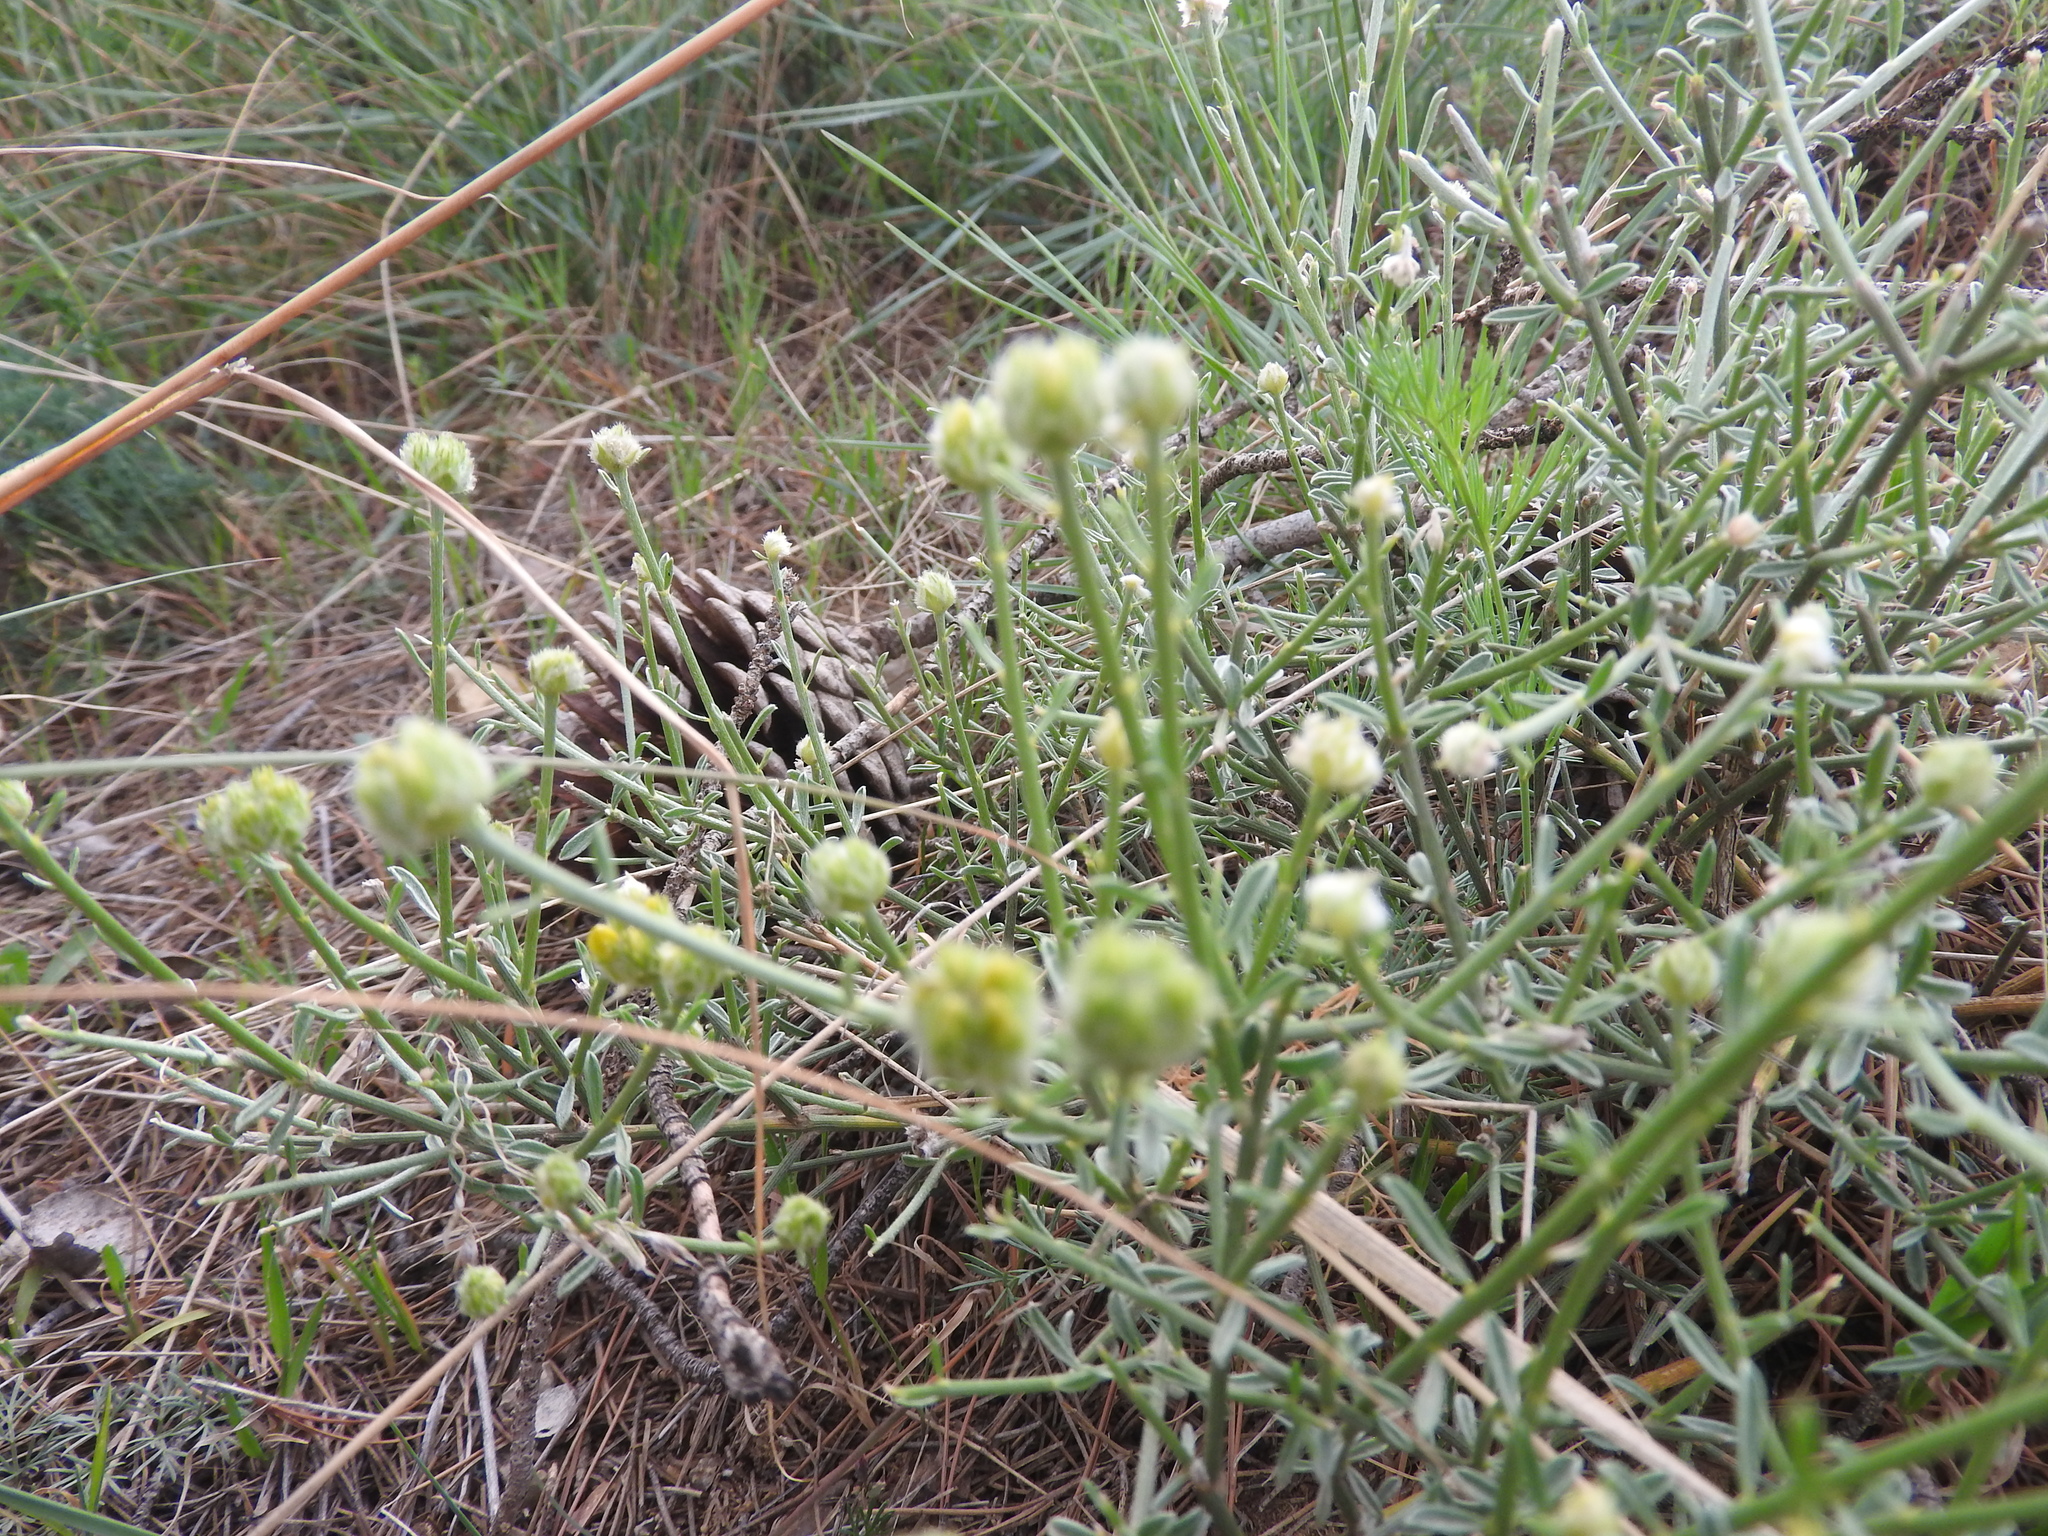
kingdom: Plantae
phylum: Tracheophyta
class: Magnoliopsida
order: Fabales
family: Fabaceae
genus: Genista
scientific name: Genista microcephala
